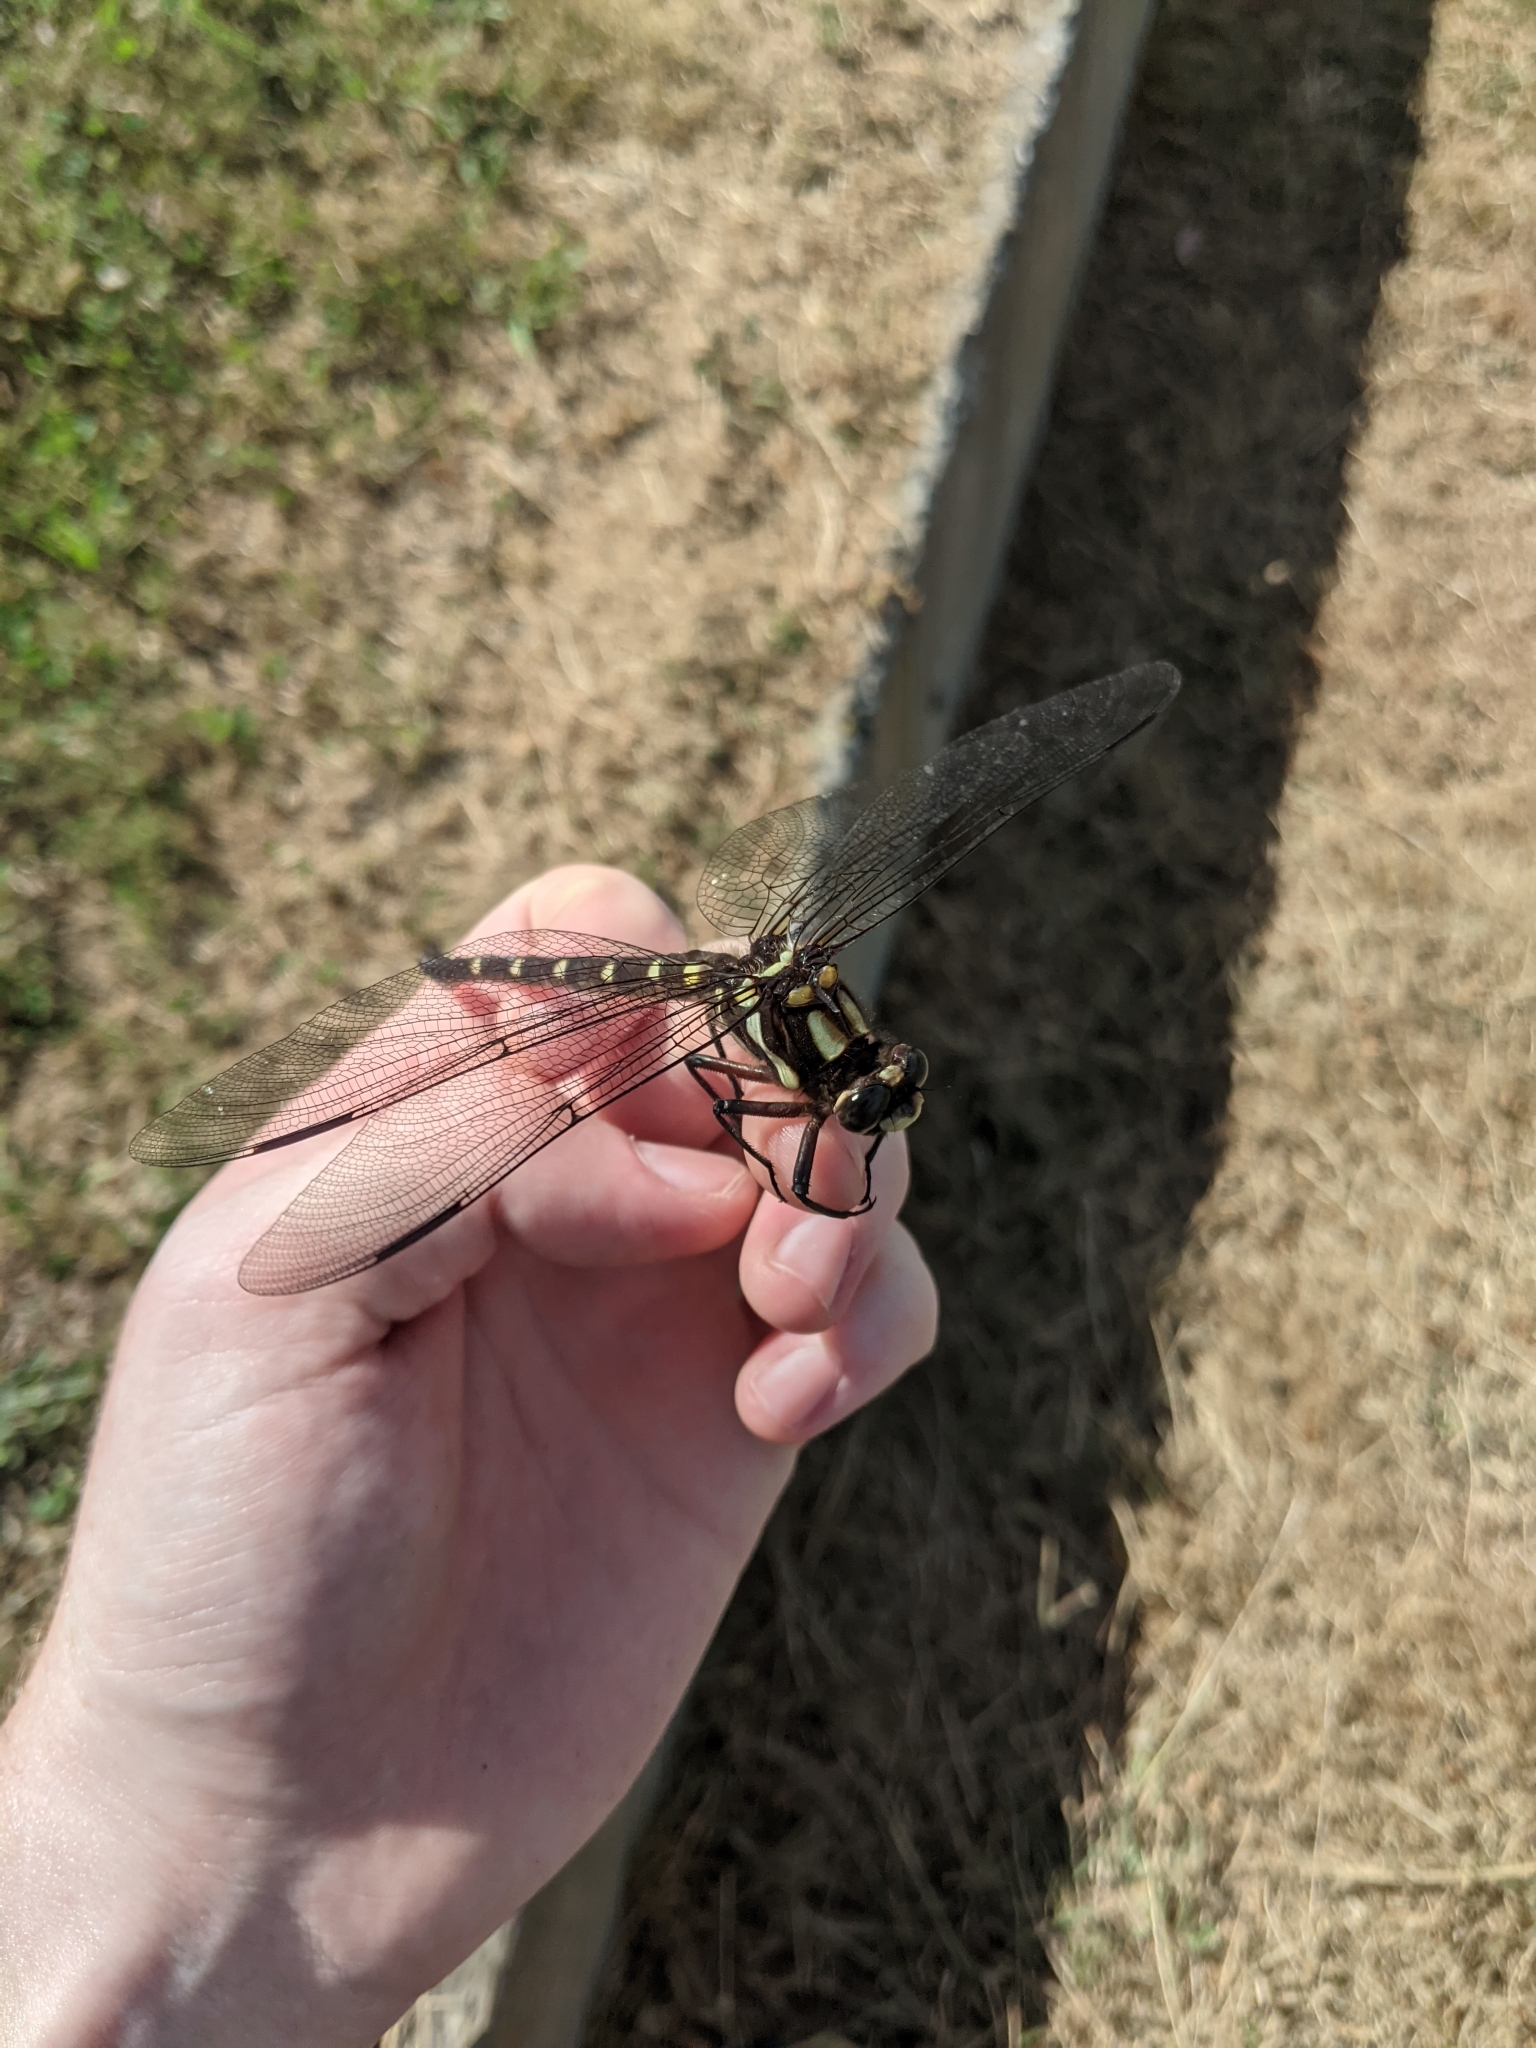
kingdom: Animalia
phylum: Arthropoda
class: Insecta
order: Odonata
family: Petaluridae
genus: Uropetala
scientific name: Uropetala carovei
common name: Bush giant dragonfly
